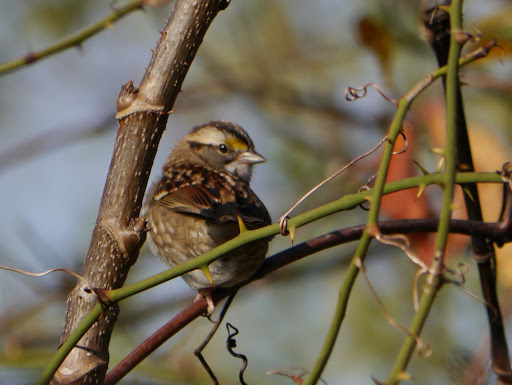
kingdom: Animalia
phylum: Chordata
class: Aves
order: Passeriformes
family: Passerellidae
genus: Zonotrichia
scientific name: Zonotrichia albicollis
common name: White-throated sparrow
